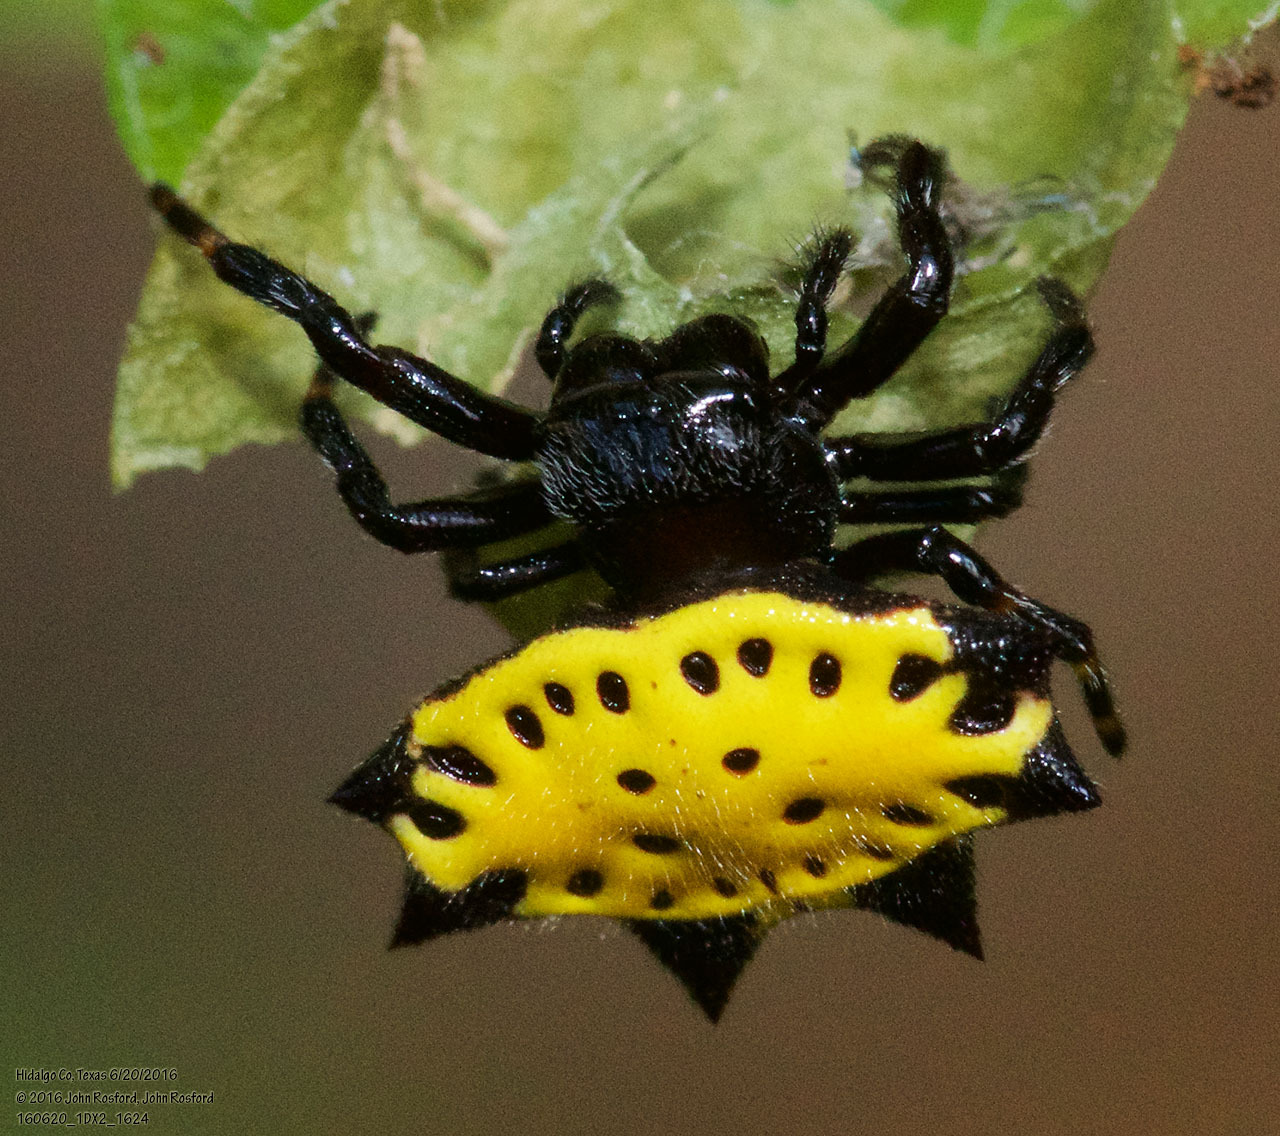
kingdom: Animalia
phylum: Arthropoda
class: Arachnida
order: Araneae
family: Araneidae
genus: Gasteracantha
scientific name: Gasteracantha cancriformis
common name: Orb weavers
